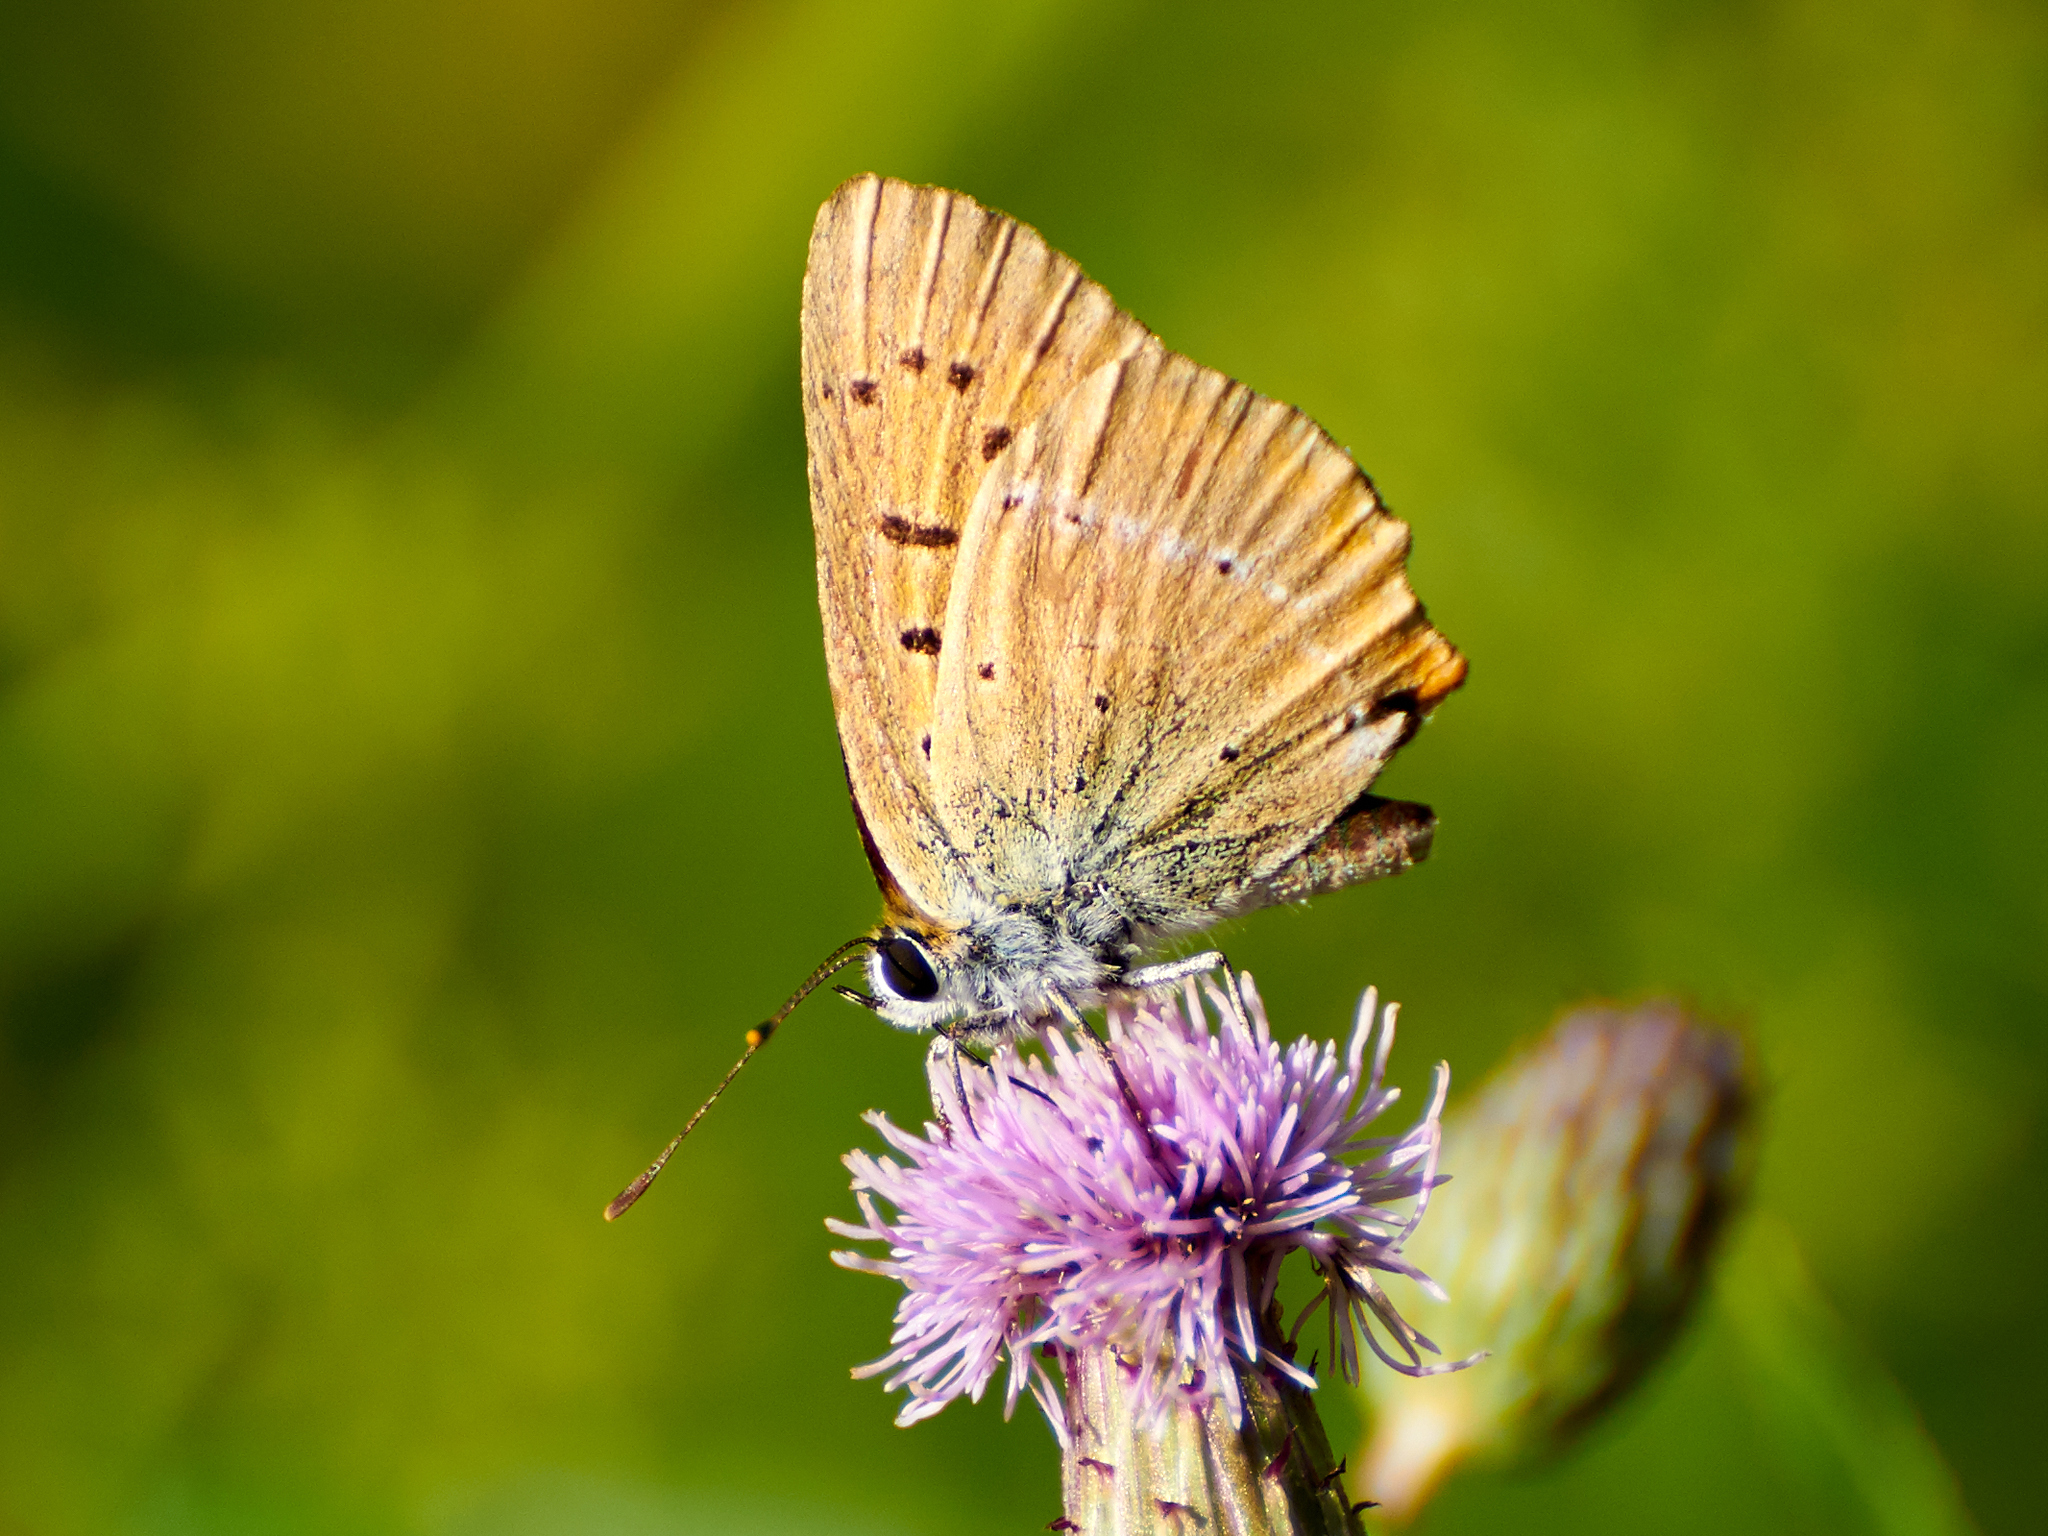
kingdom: Animalia
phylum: Arthropoda
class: Insecta
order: Lepidoptera
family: Lycaenidae
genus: Lycaena
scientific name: Lycaena virgaureae
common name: Scarce copper
